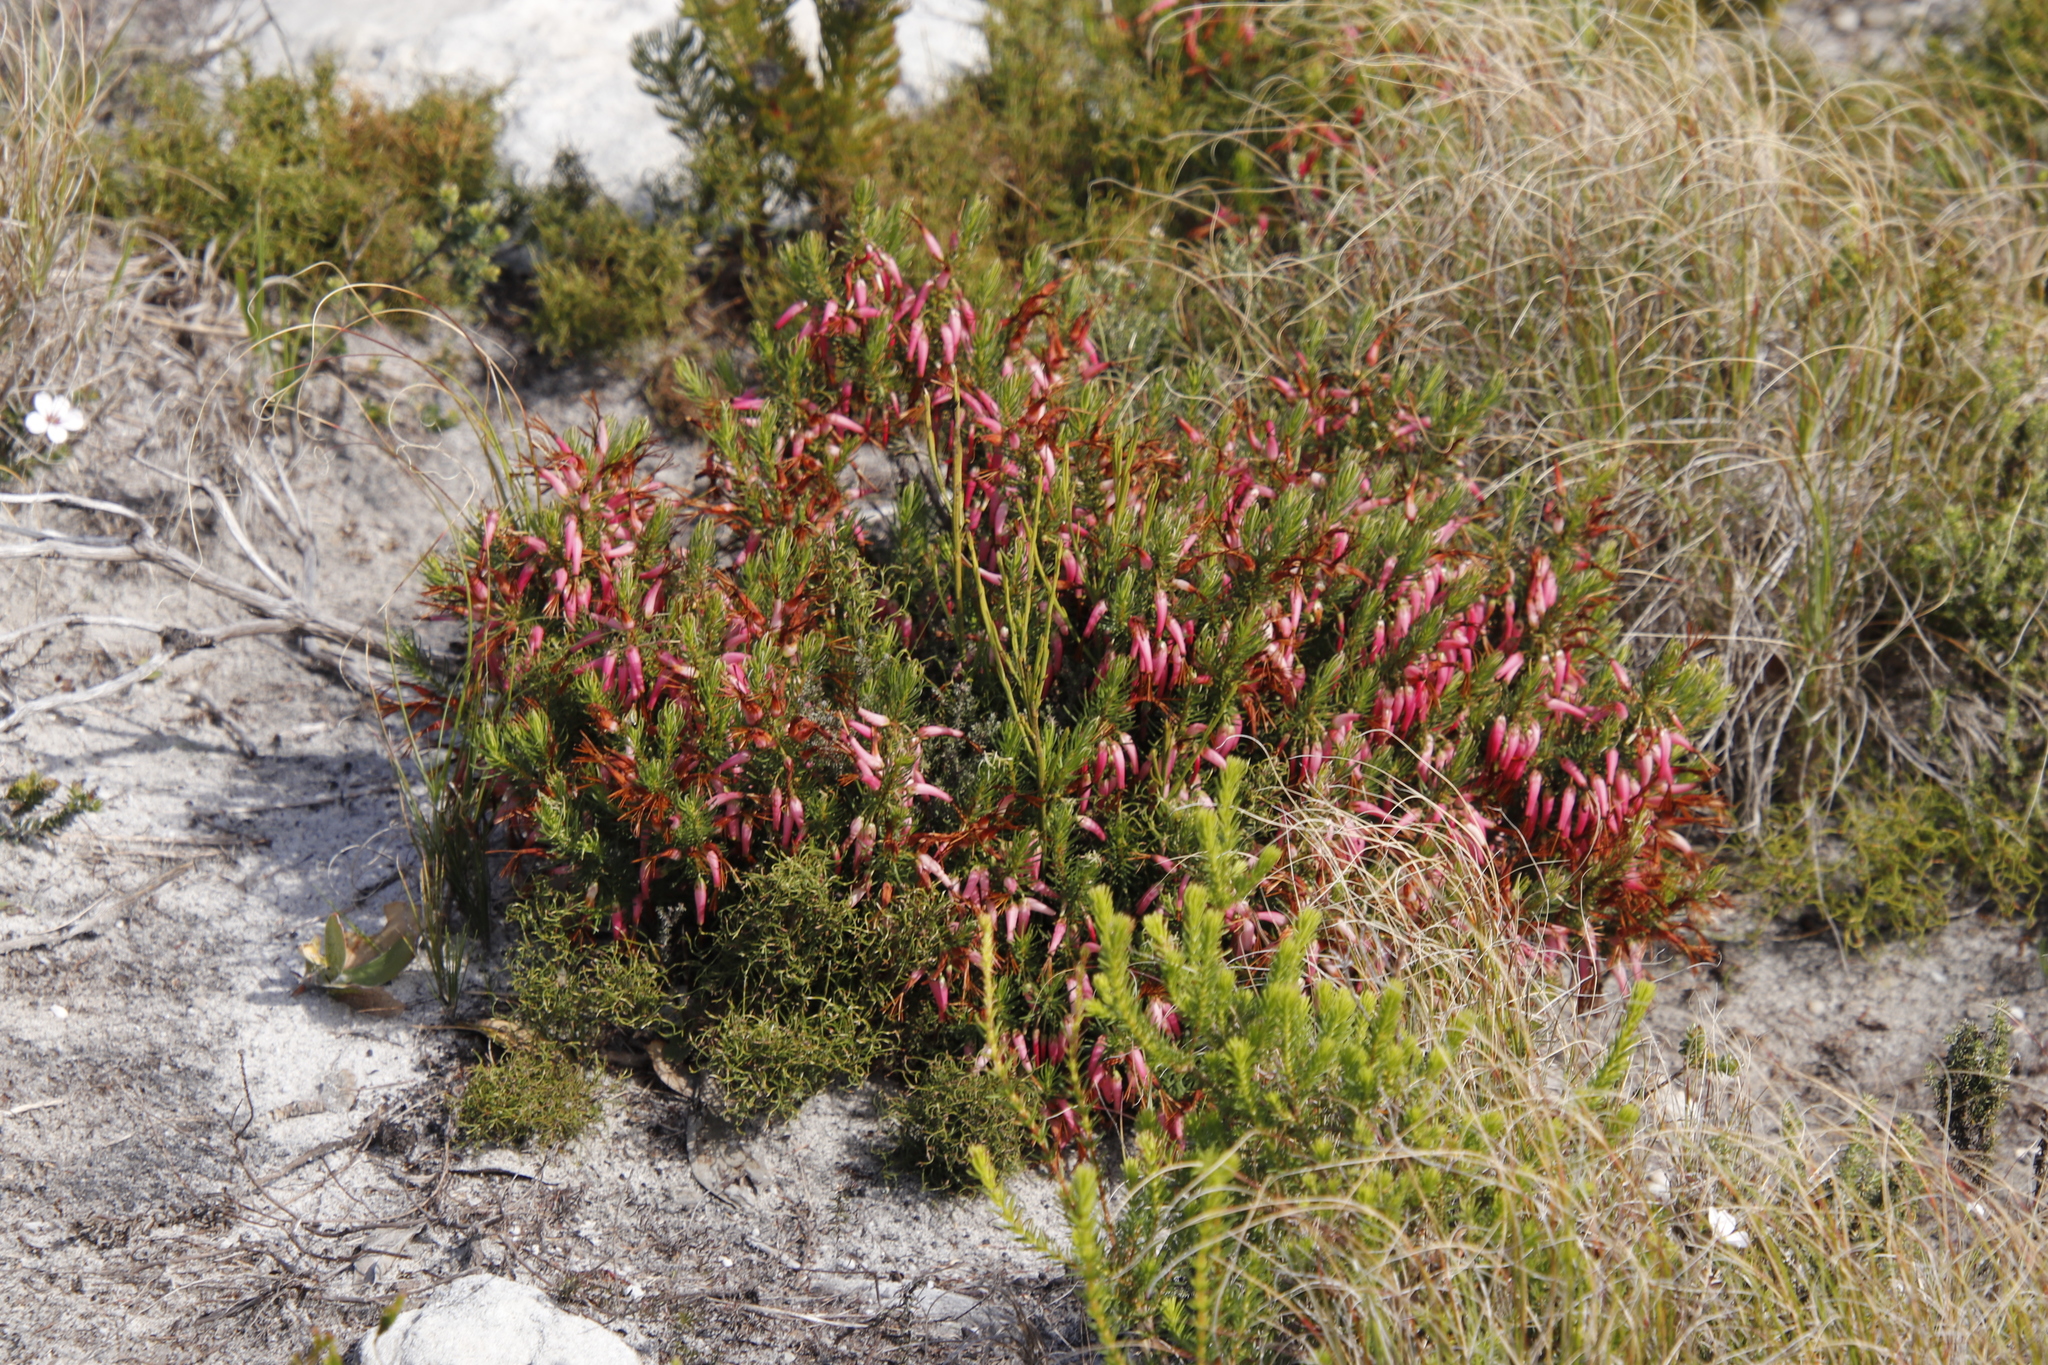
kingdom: Plantae
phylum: Tracheophyta
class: Magnoliopsida
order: Ericales
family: Ericaceae
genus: Erica
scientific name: Erica plukenetii
